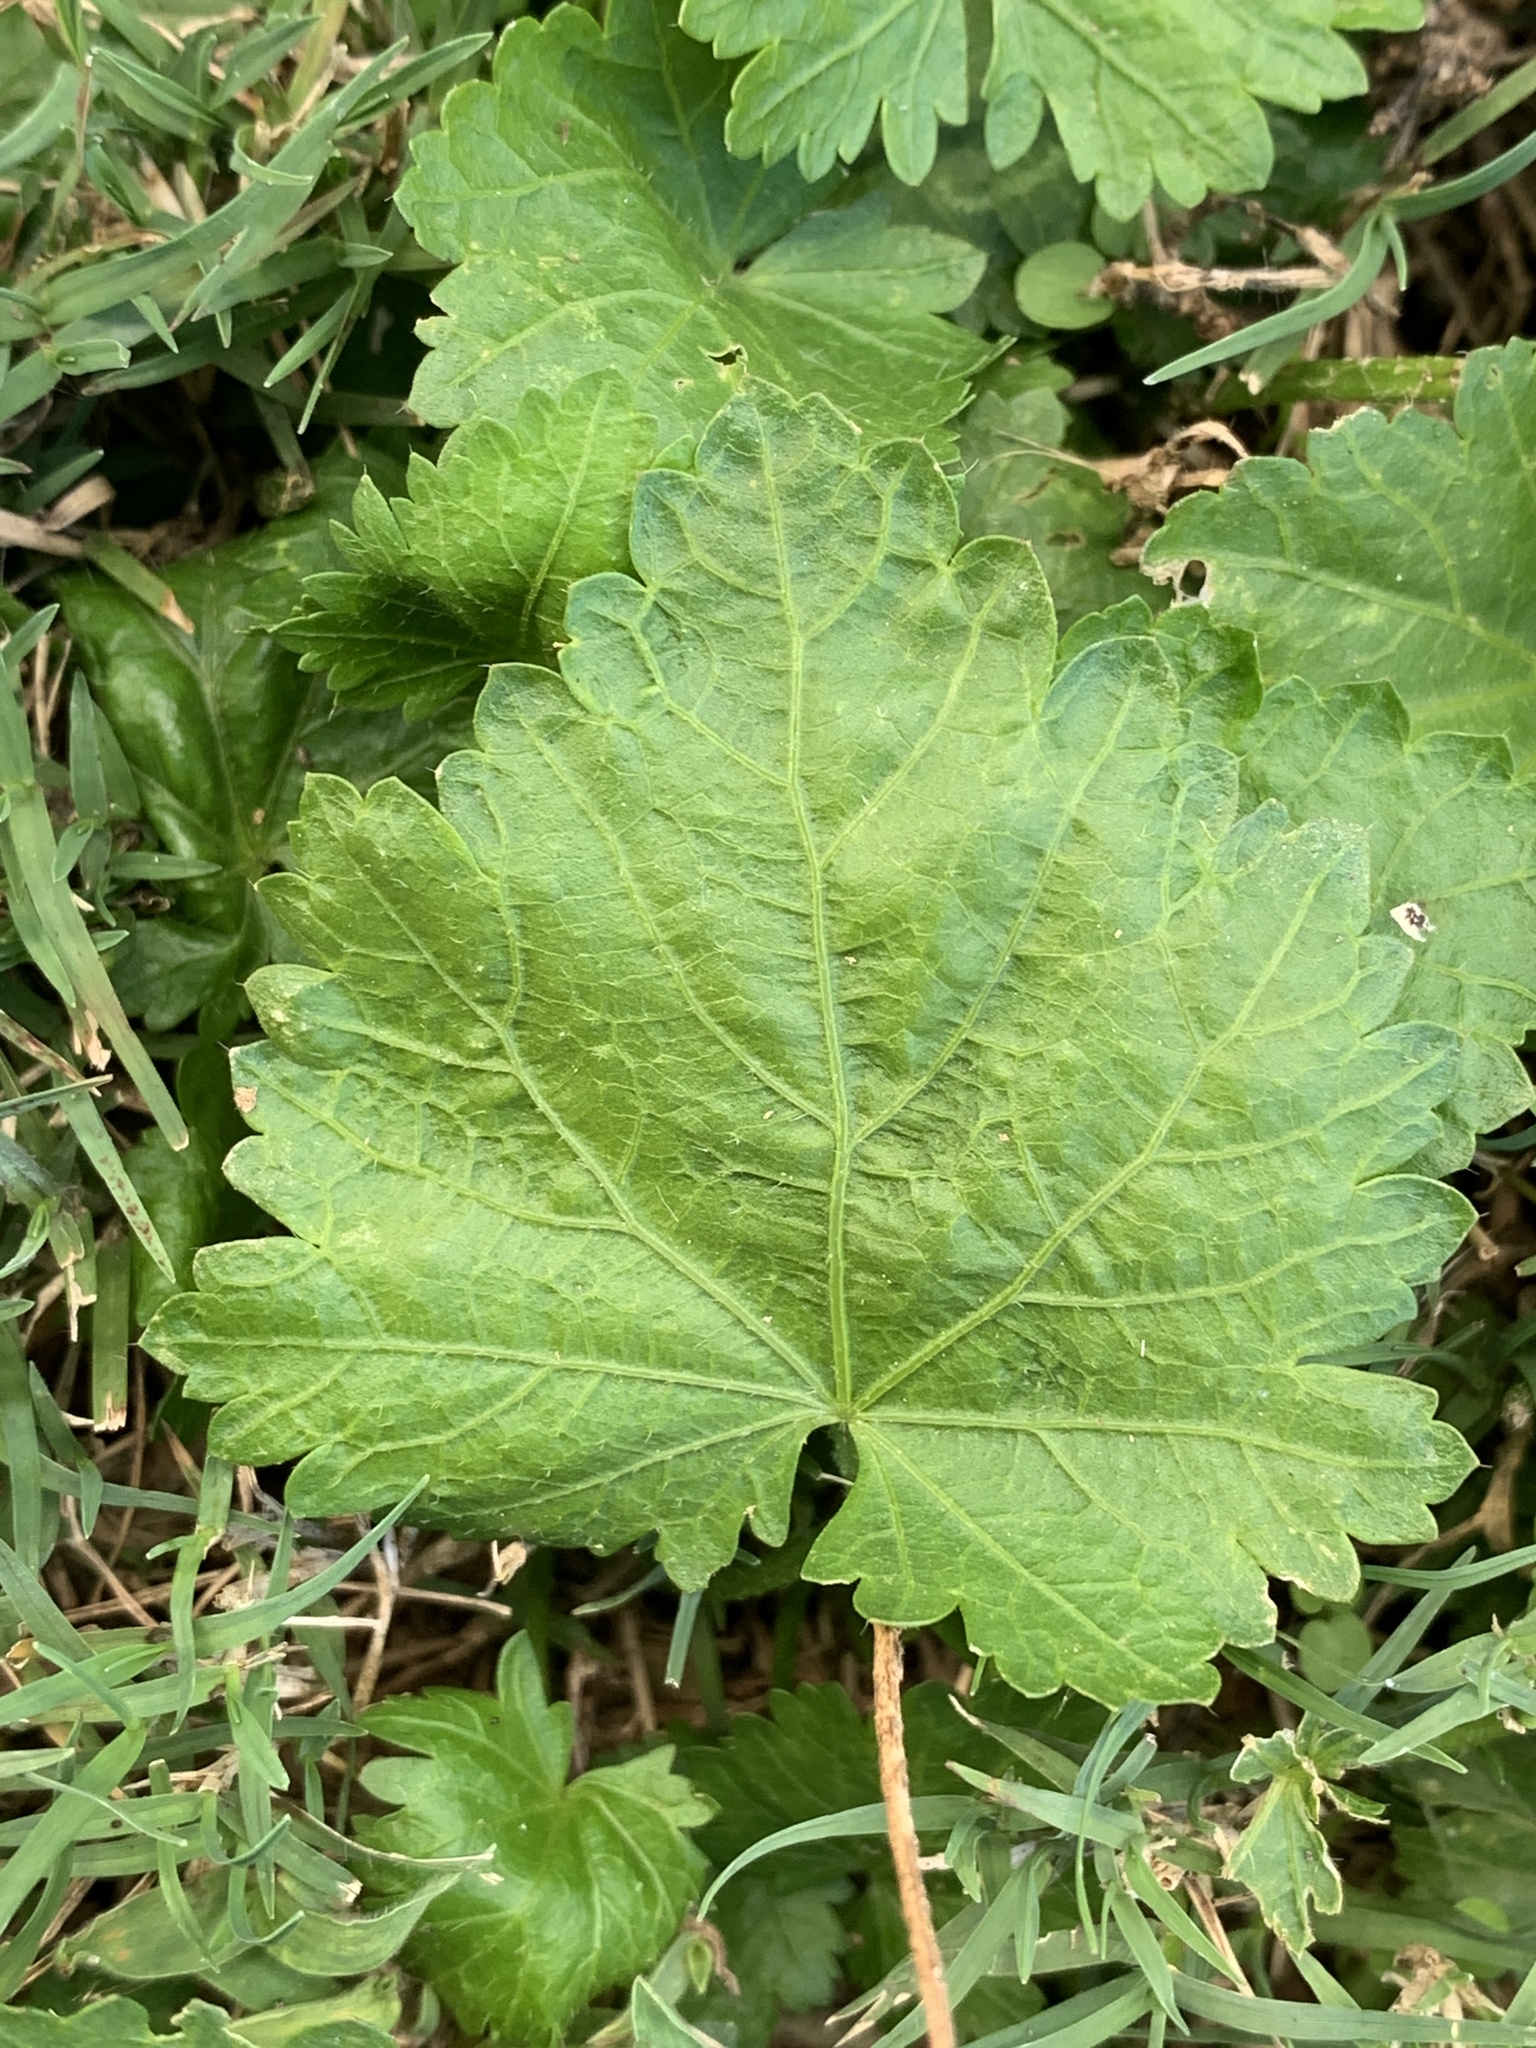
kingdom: Plantae
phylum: Tracheophyta
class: Magnoliopsida
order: Malvales
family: Malvaceae
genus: Modiola
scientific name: Modiola caroliniana
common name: Carolina bristlemallow
